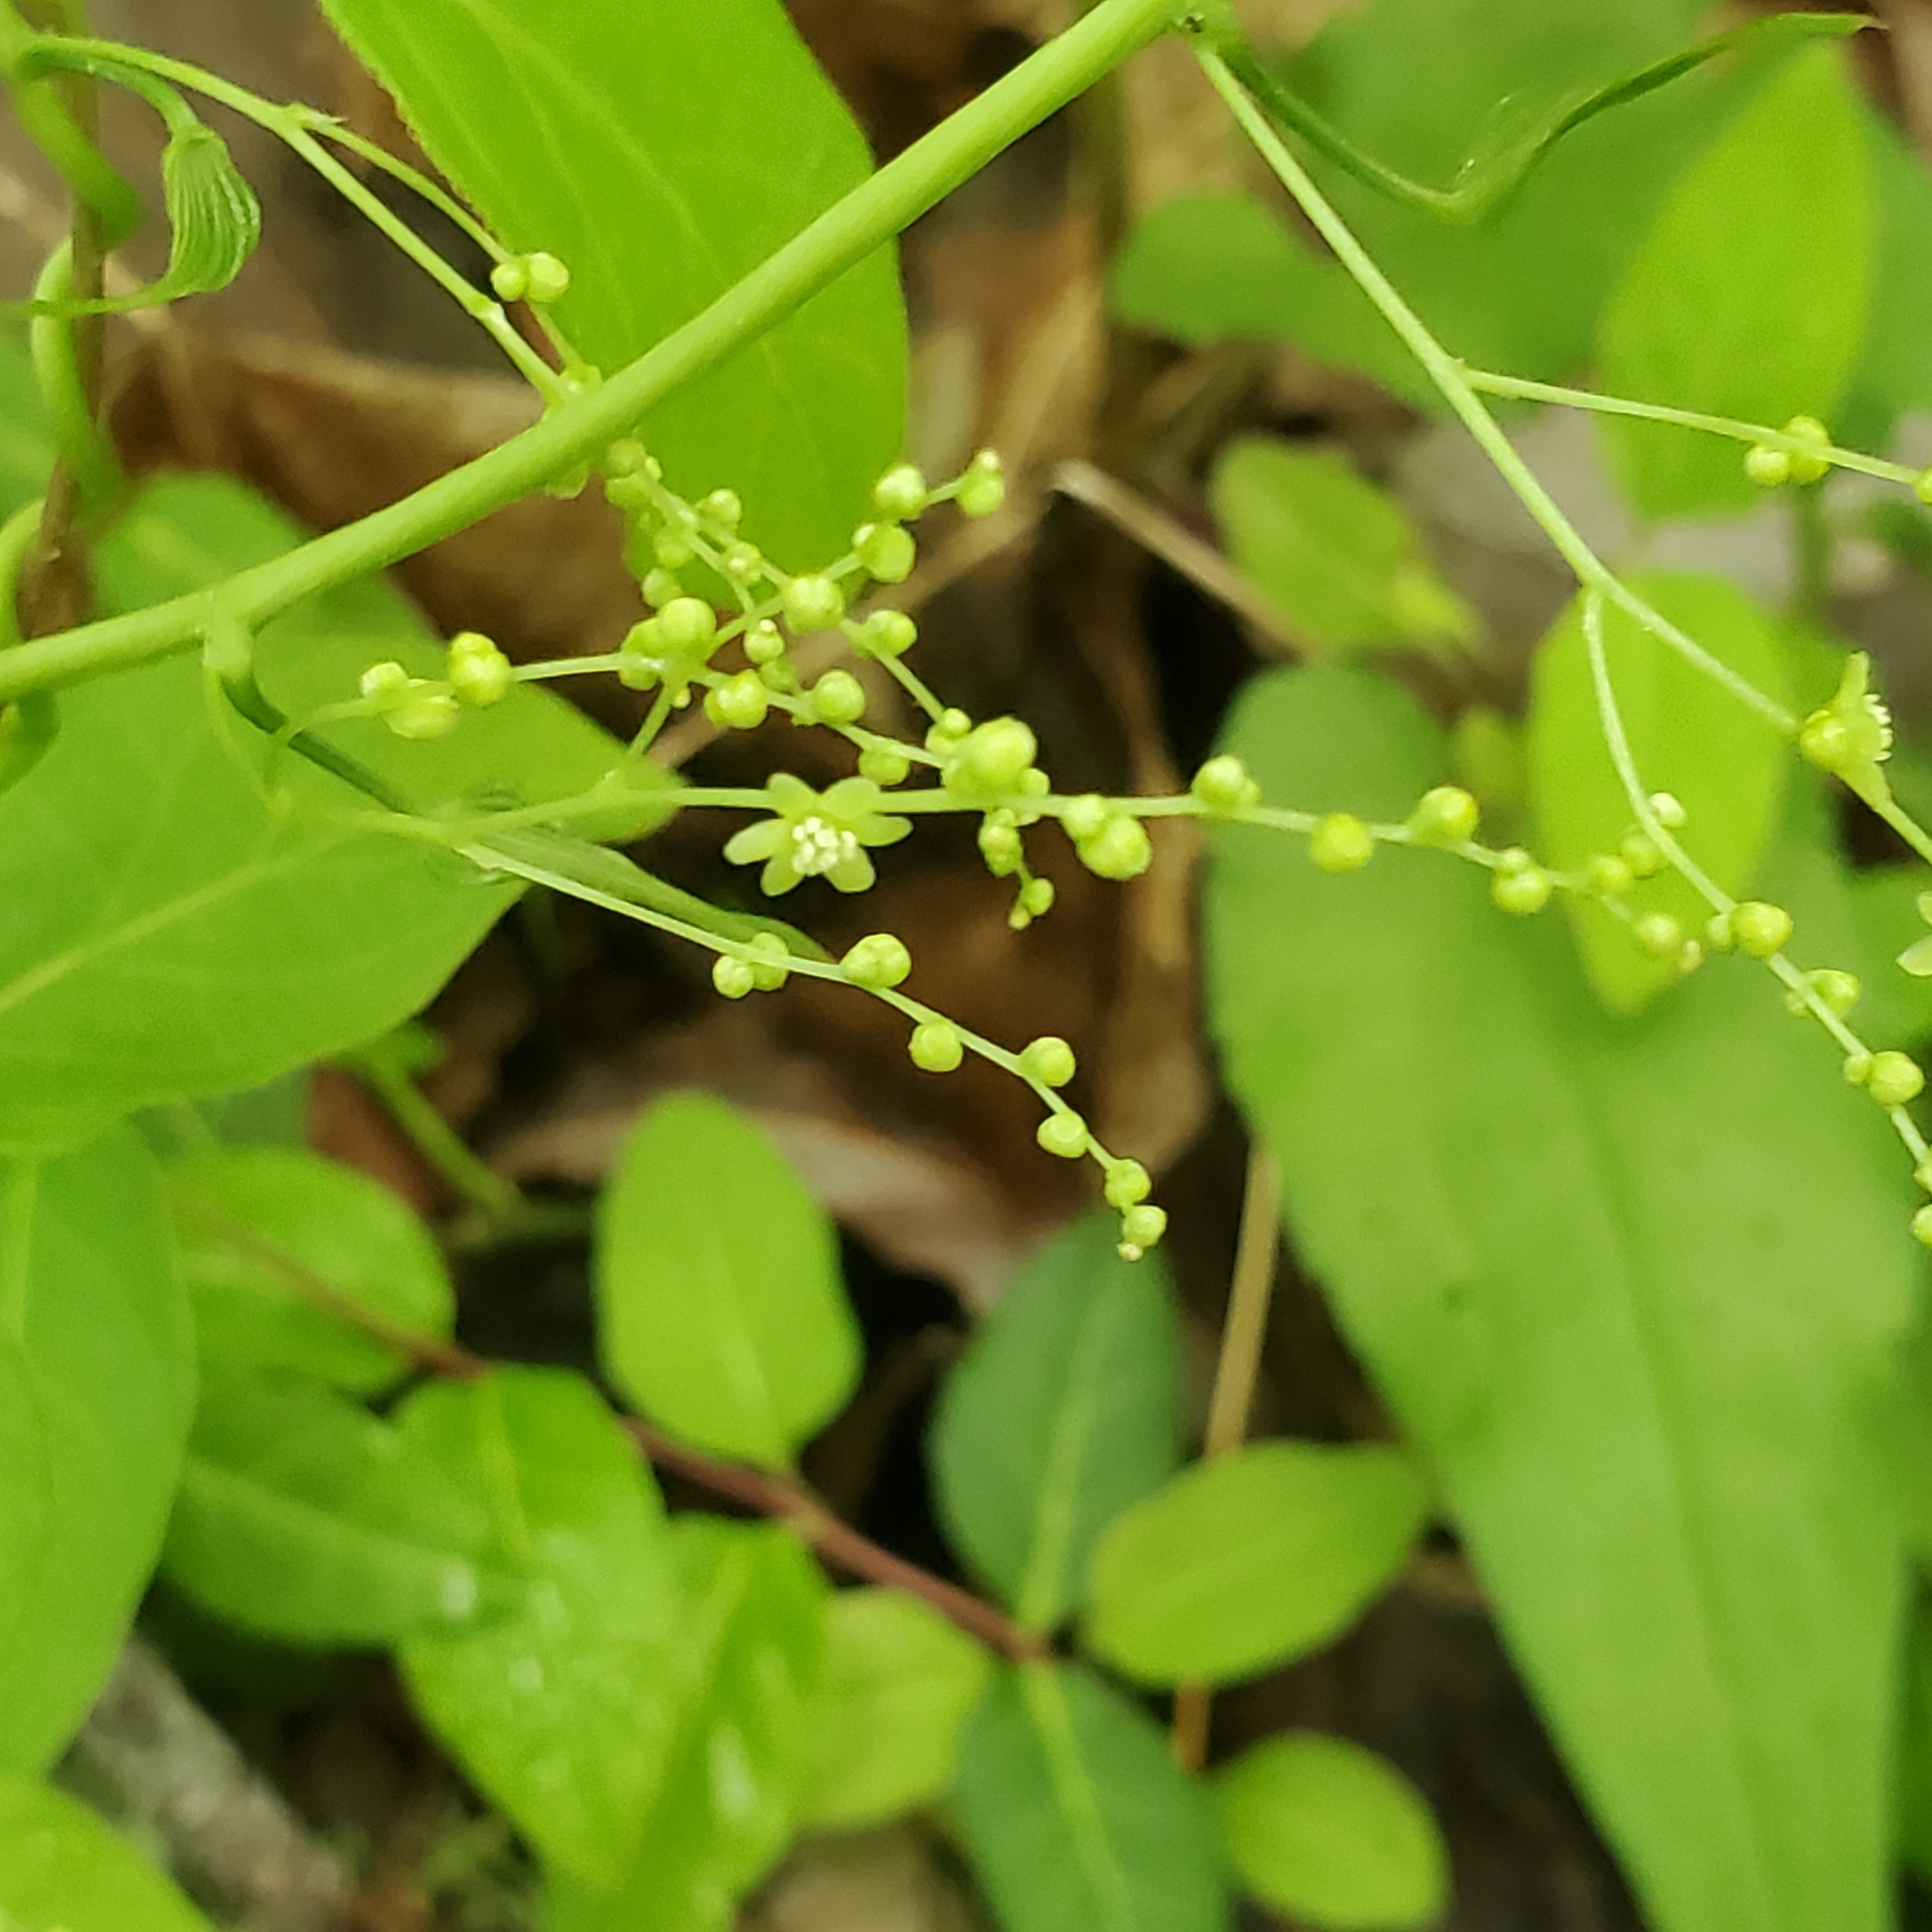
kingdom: Plantae
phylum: Tracheophyta
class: Liliopsida
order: Dioscoreales
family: Dioscoreaceae
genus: Dioscorea
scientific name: Dioscorea villosa
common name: Wild yam
